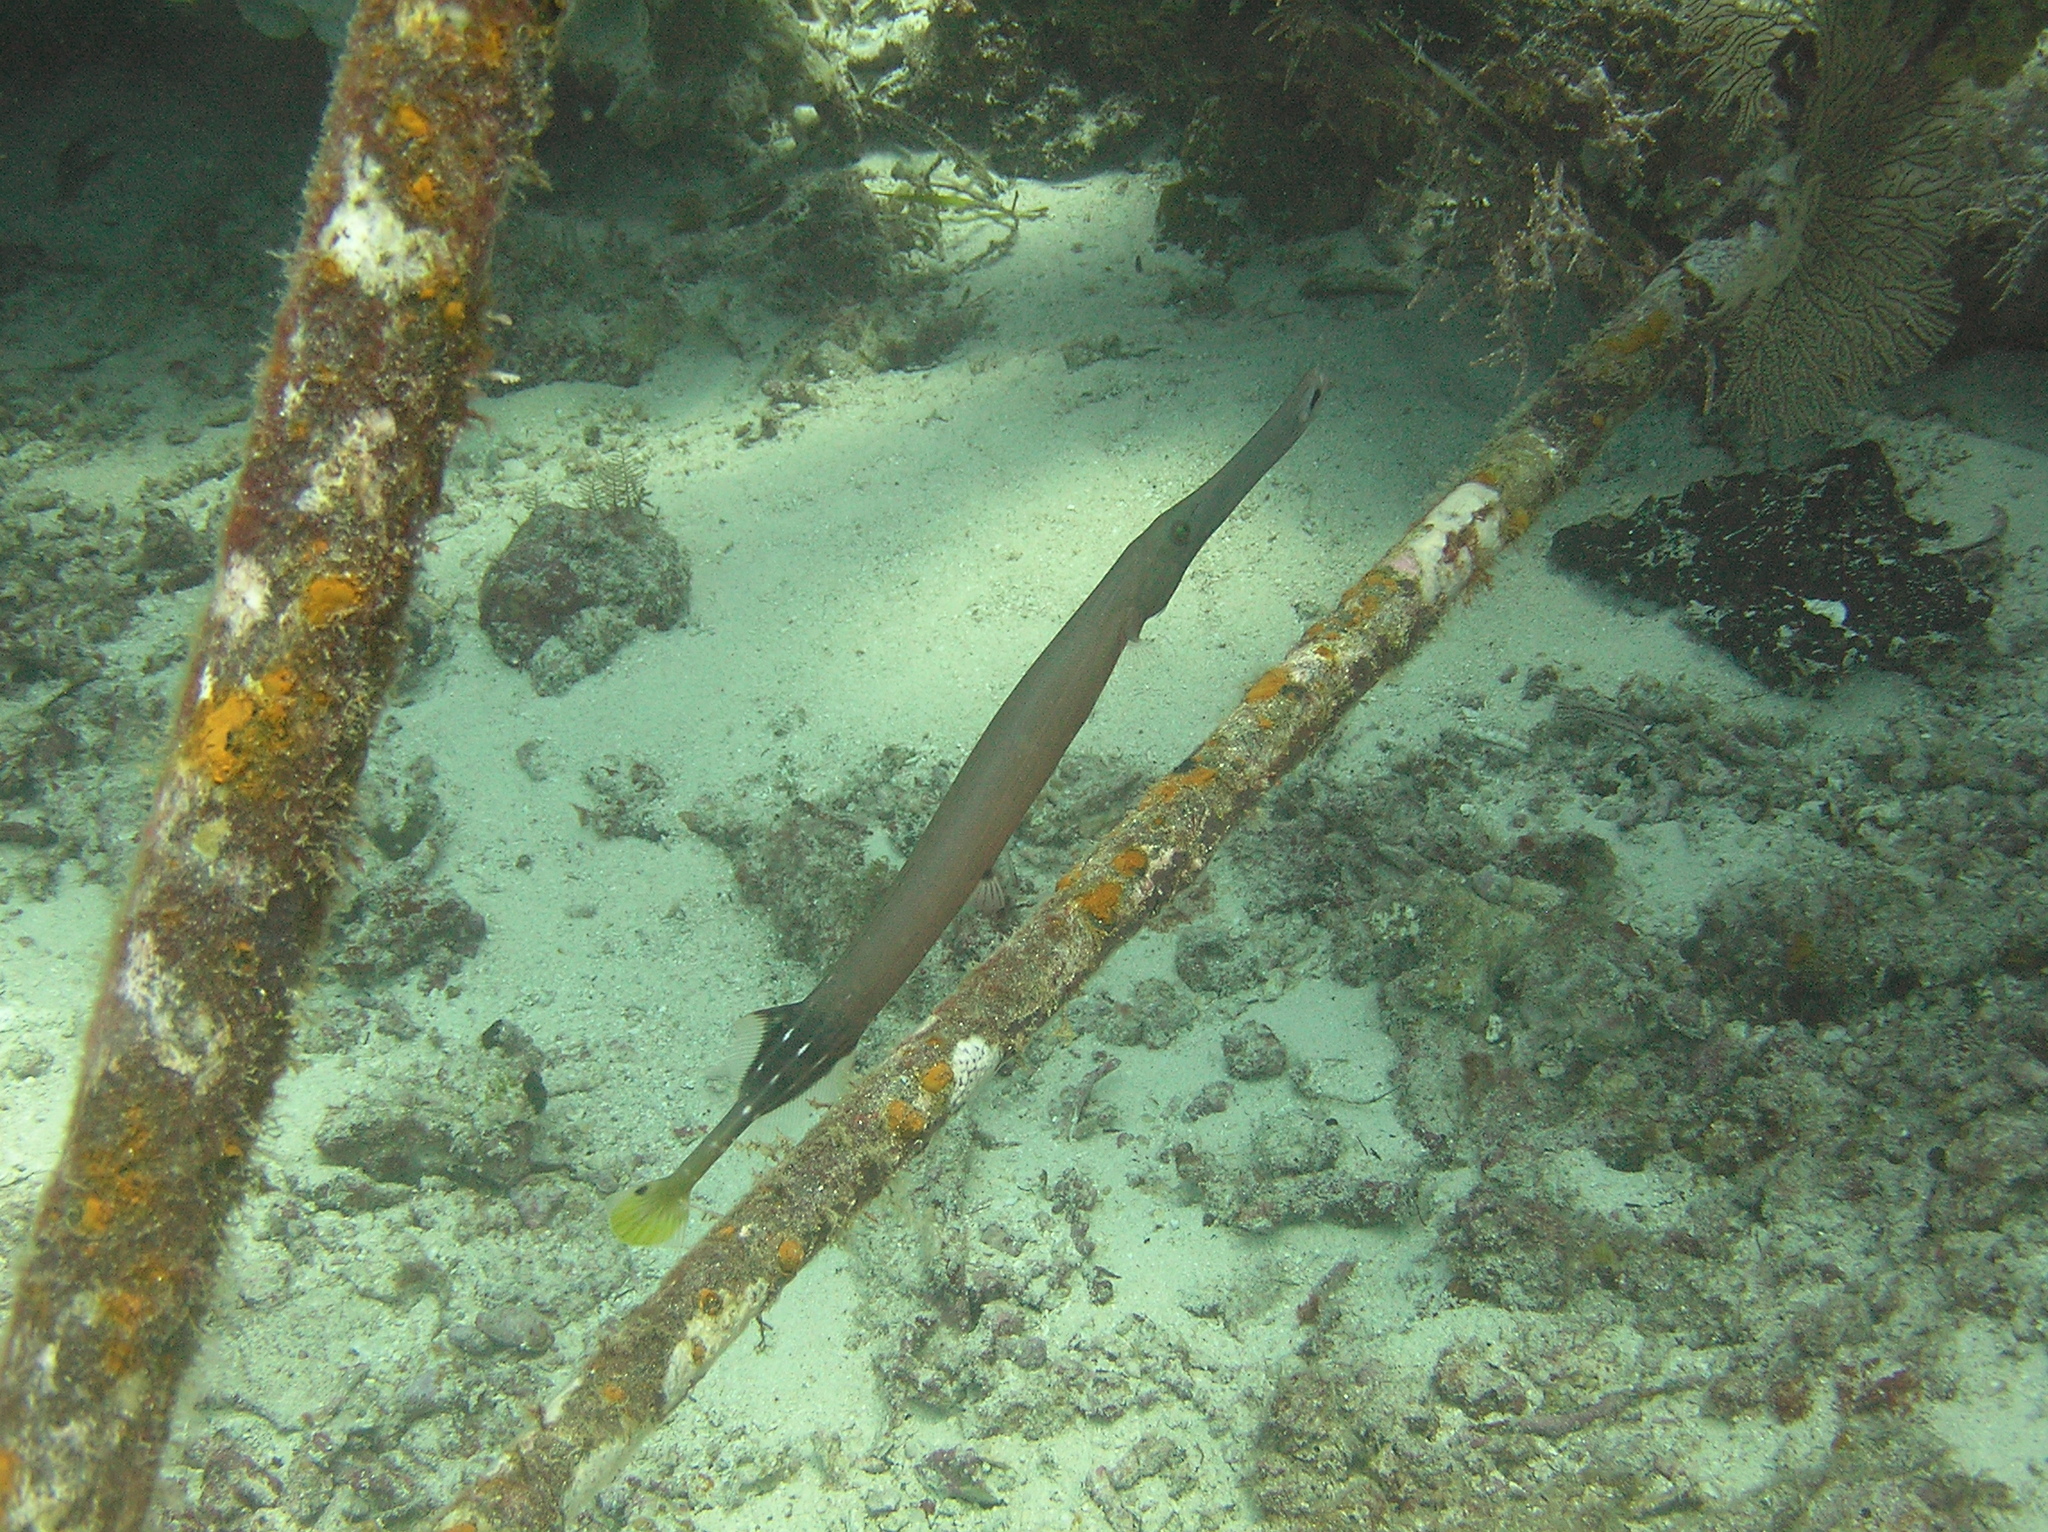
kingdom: Animalia
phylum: Chordata
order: Syngnathiformes
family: Aulostomidae
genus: Aulostomus
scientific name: Aulostomus chinensis
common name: Chinese trumpetfish
